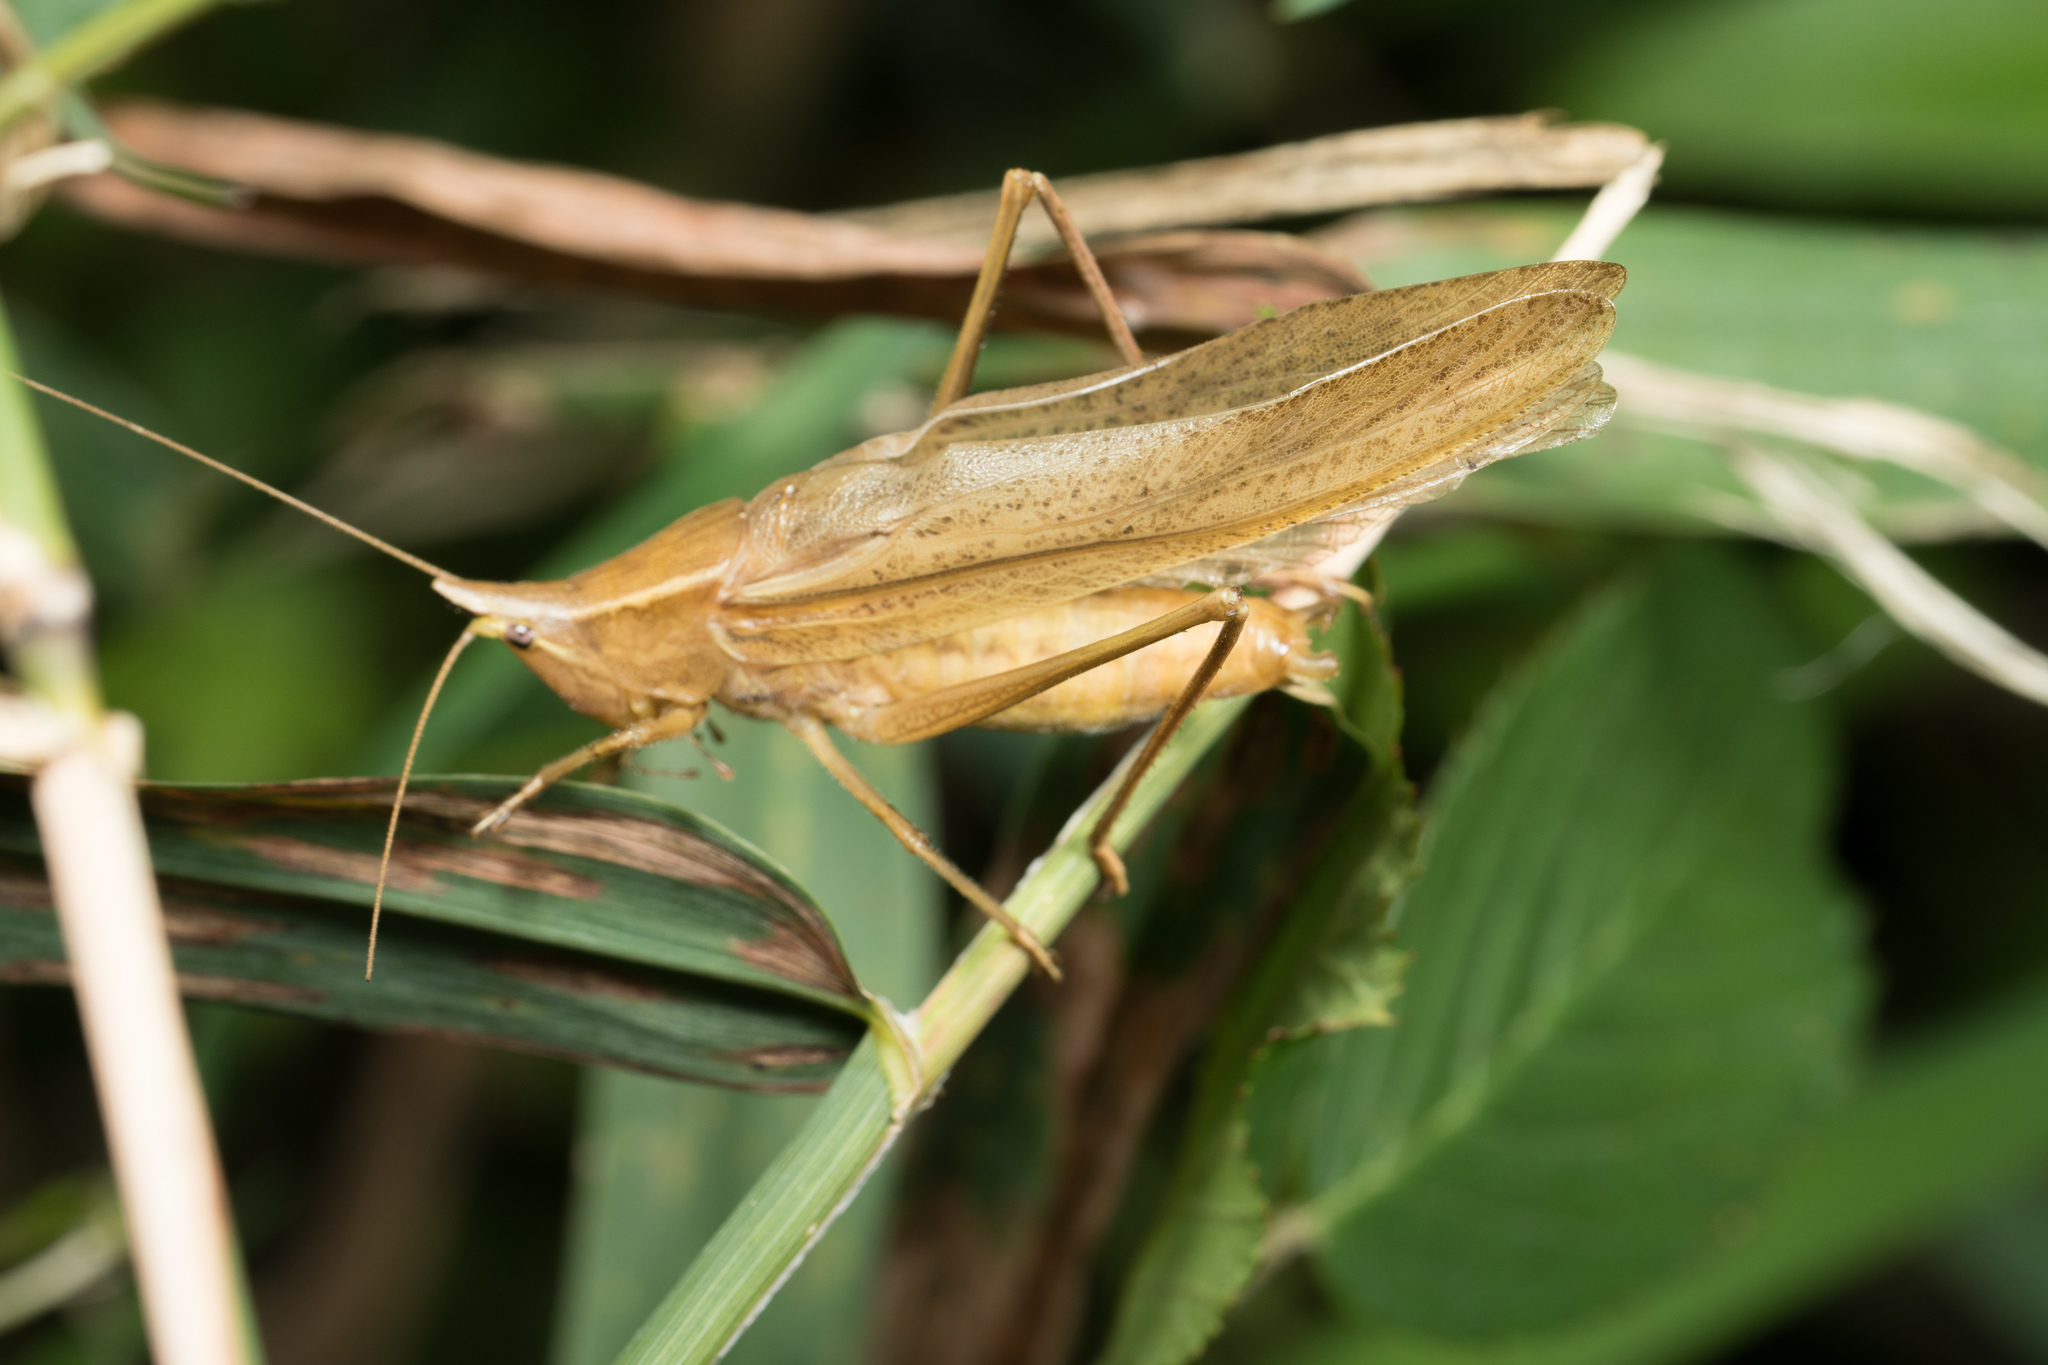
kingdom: Animalia
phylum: Arthropoda
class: Insecta
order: Orthoptera
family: Tettigoniidae
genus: Neoconocephalus
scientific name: Neoconocephalus nebrascensis
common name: Nebraska conehead
